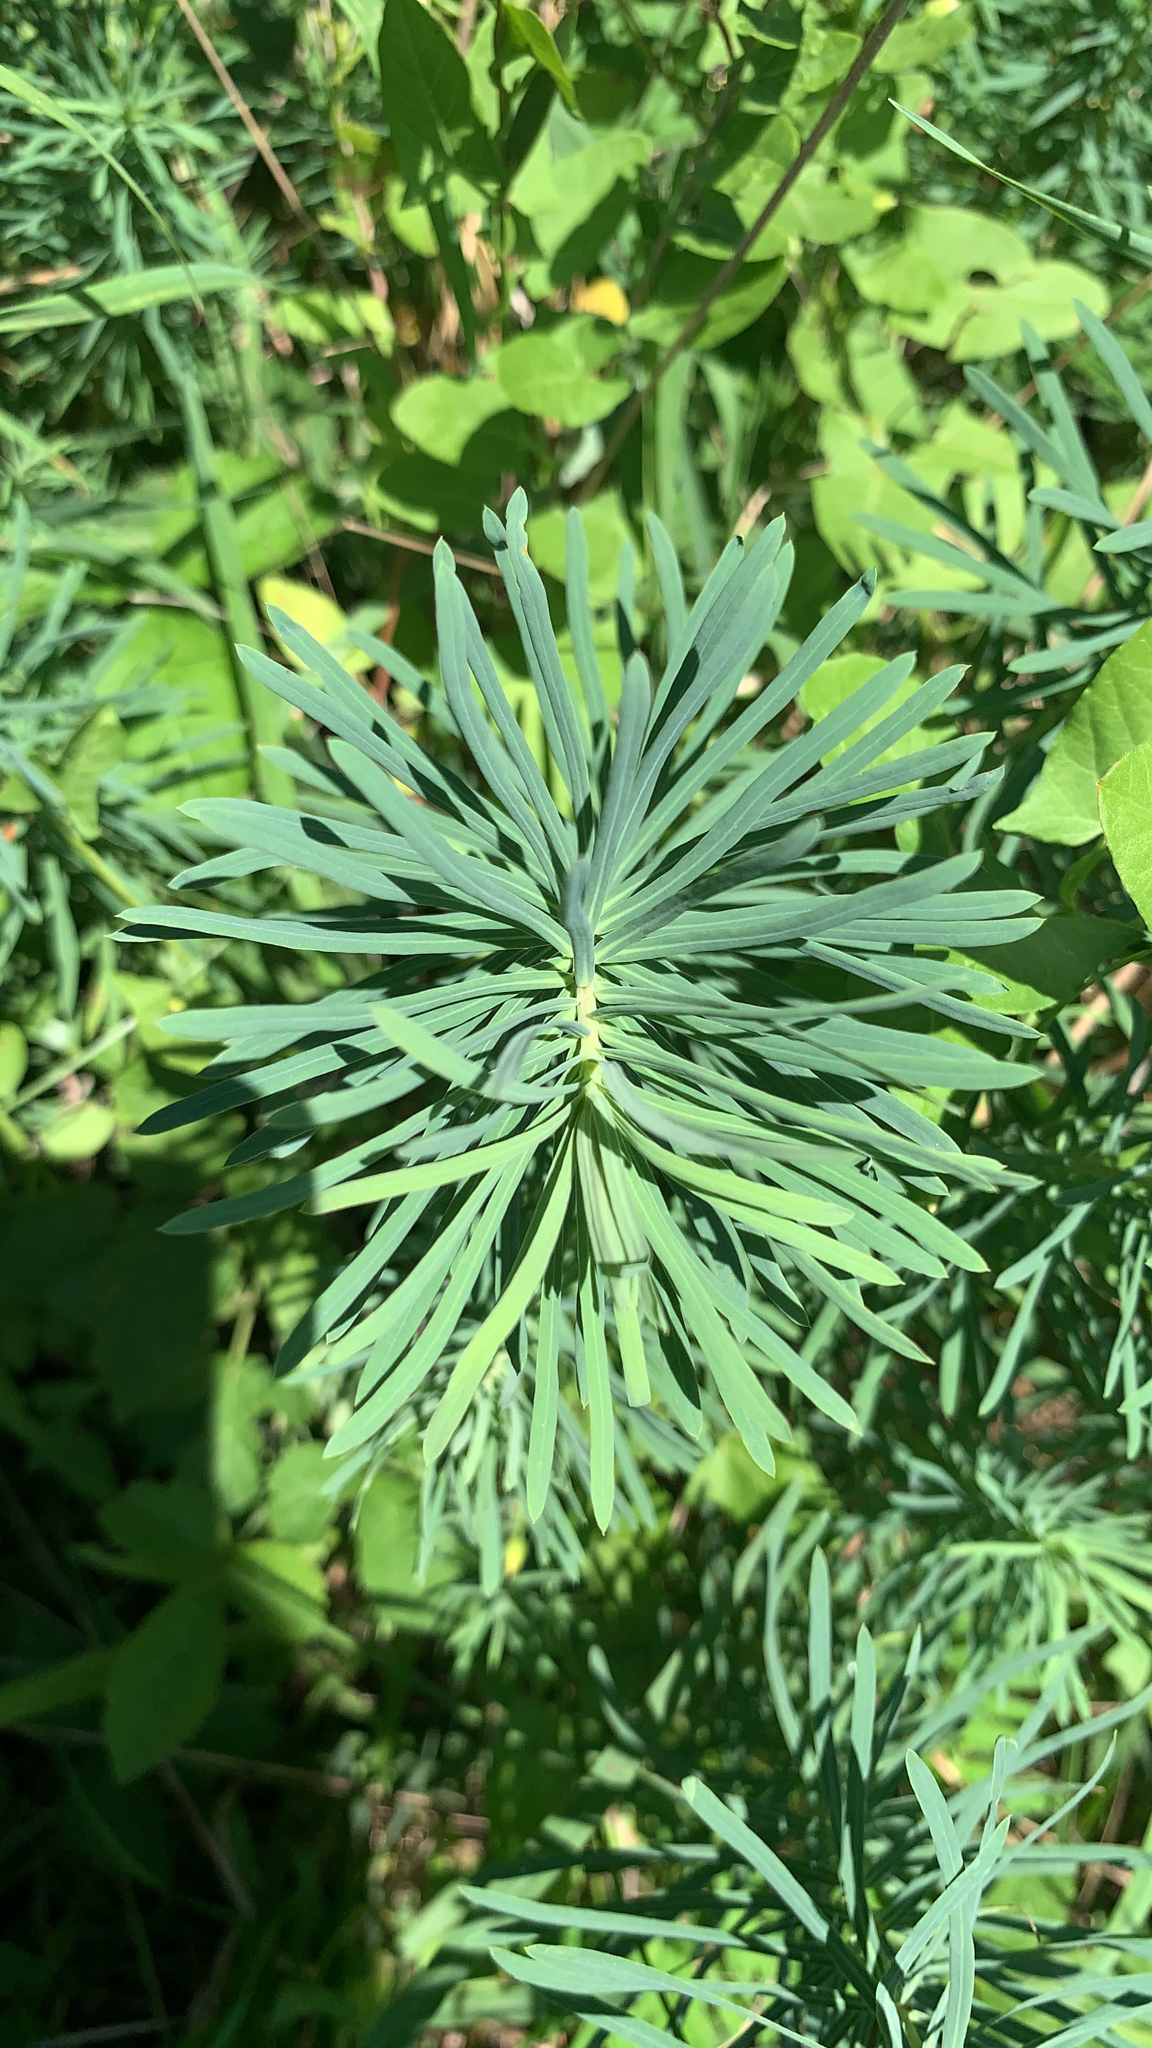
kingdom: Plantae
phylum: Tracheophyta
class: Magnoliopsida
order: Malpighiales
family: Euphorbiaceae
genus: Euphorbia
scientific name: Euphorbia cyparissias
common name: Cypress spurge
